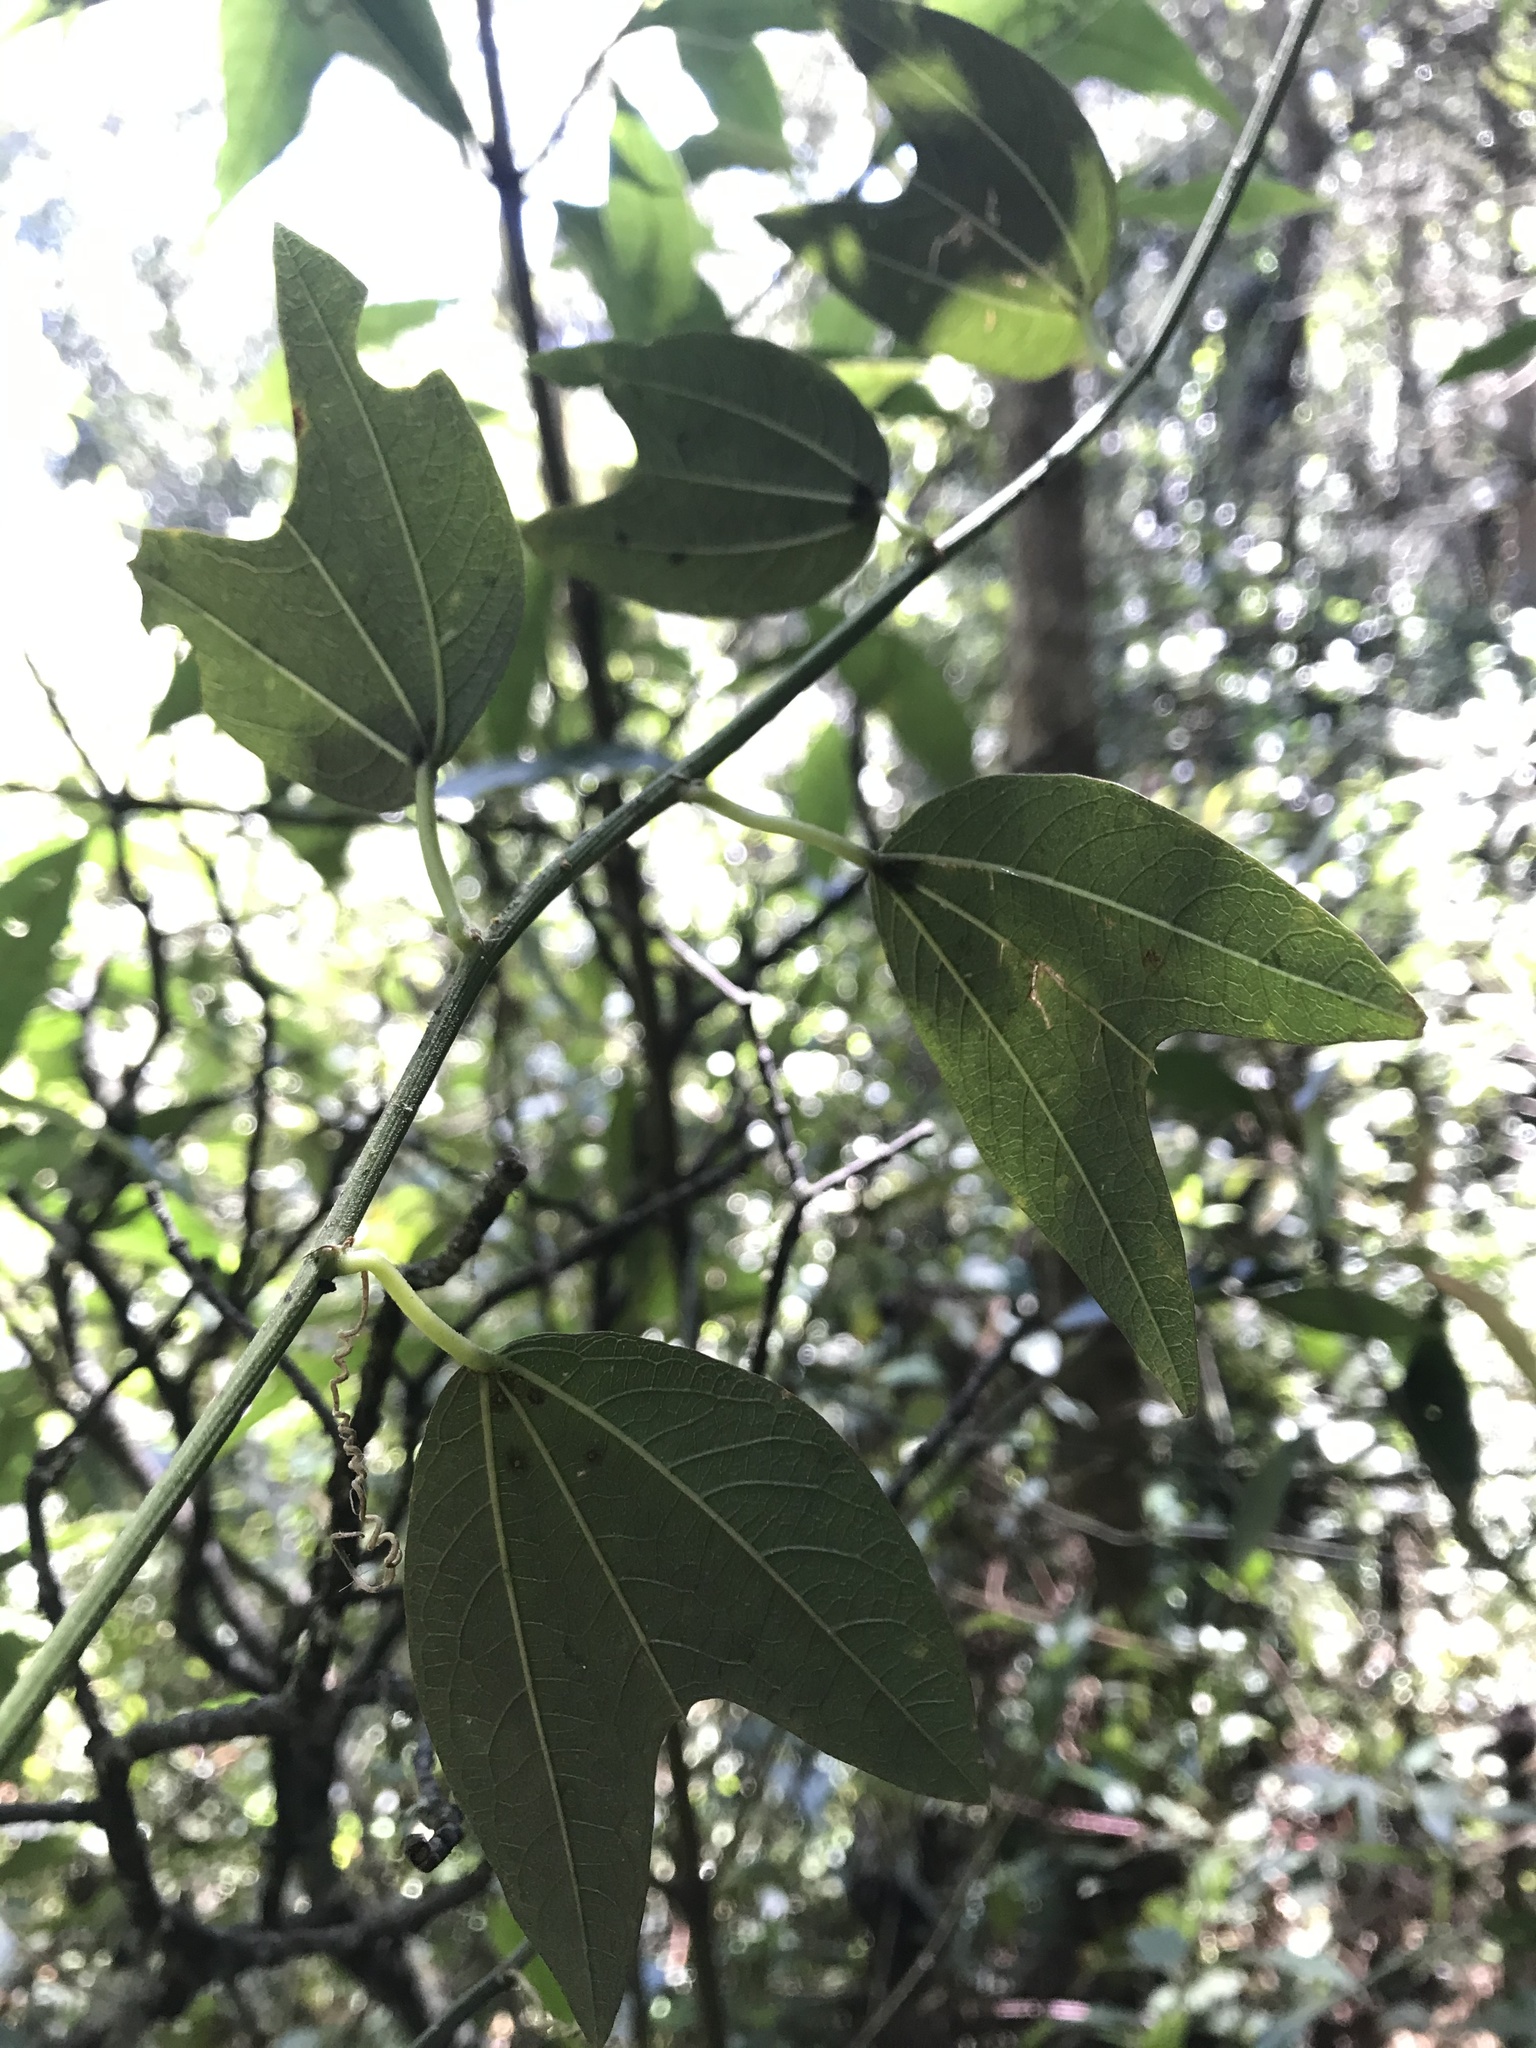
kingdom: Plantae
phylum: Tracheophyta
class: Magnoliopsida
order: Malpighiales
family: Passifloraceae
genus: Passiflora
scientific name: Passiflora chelidonea
